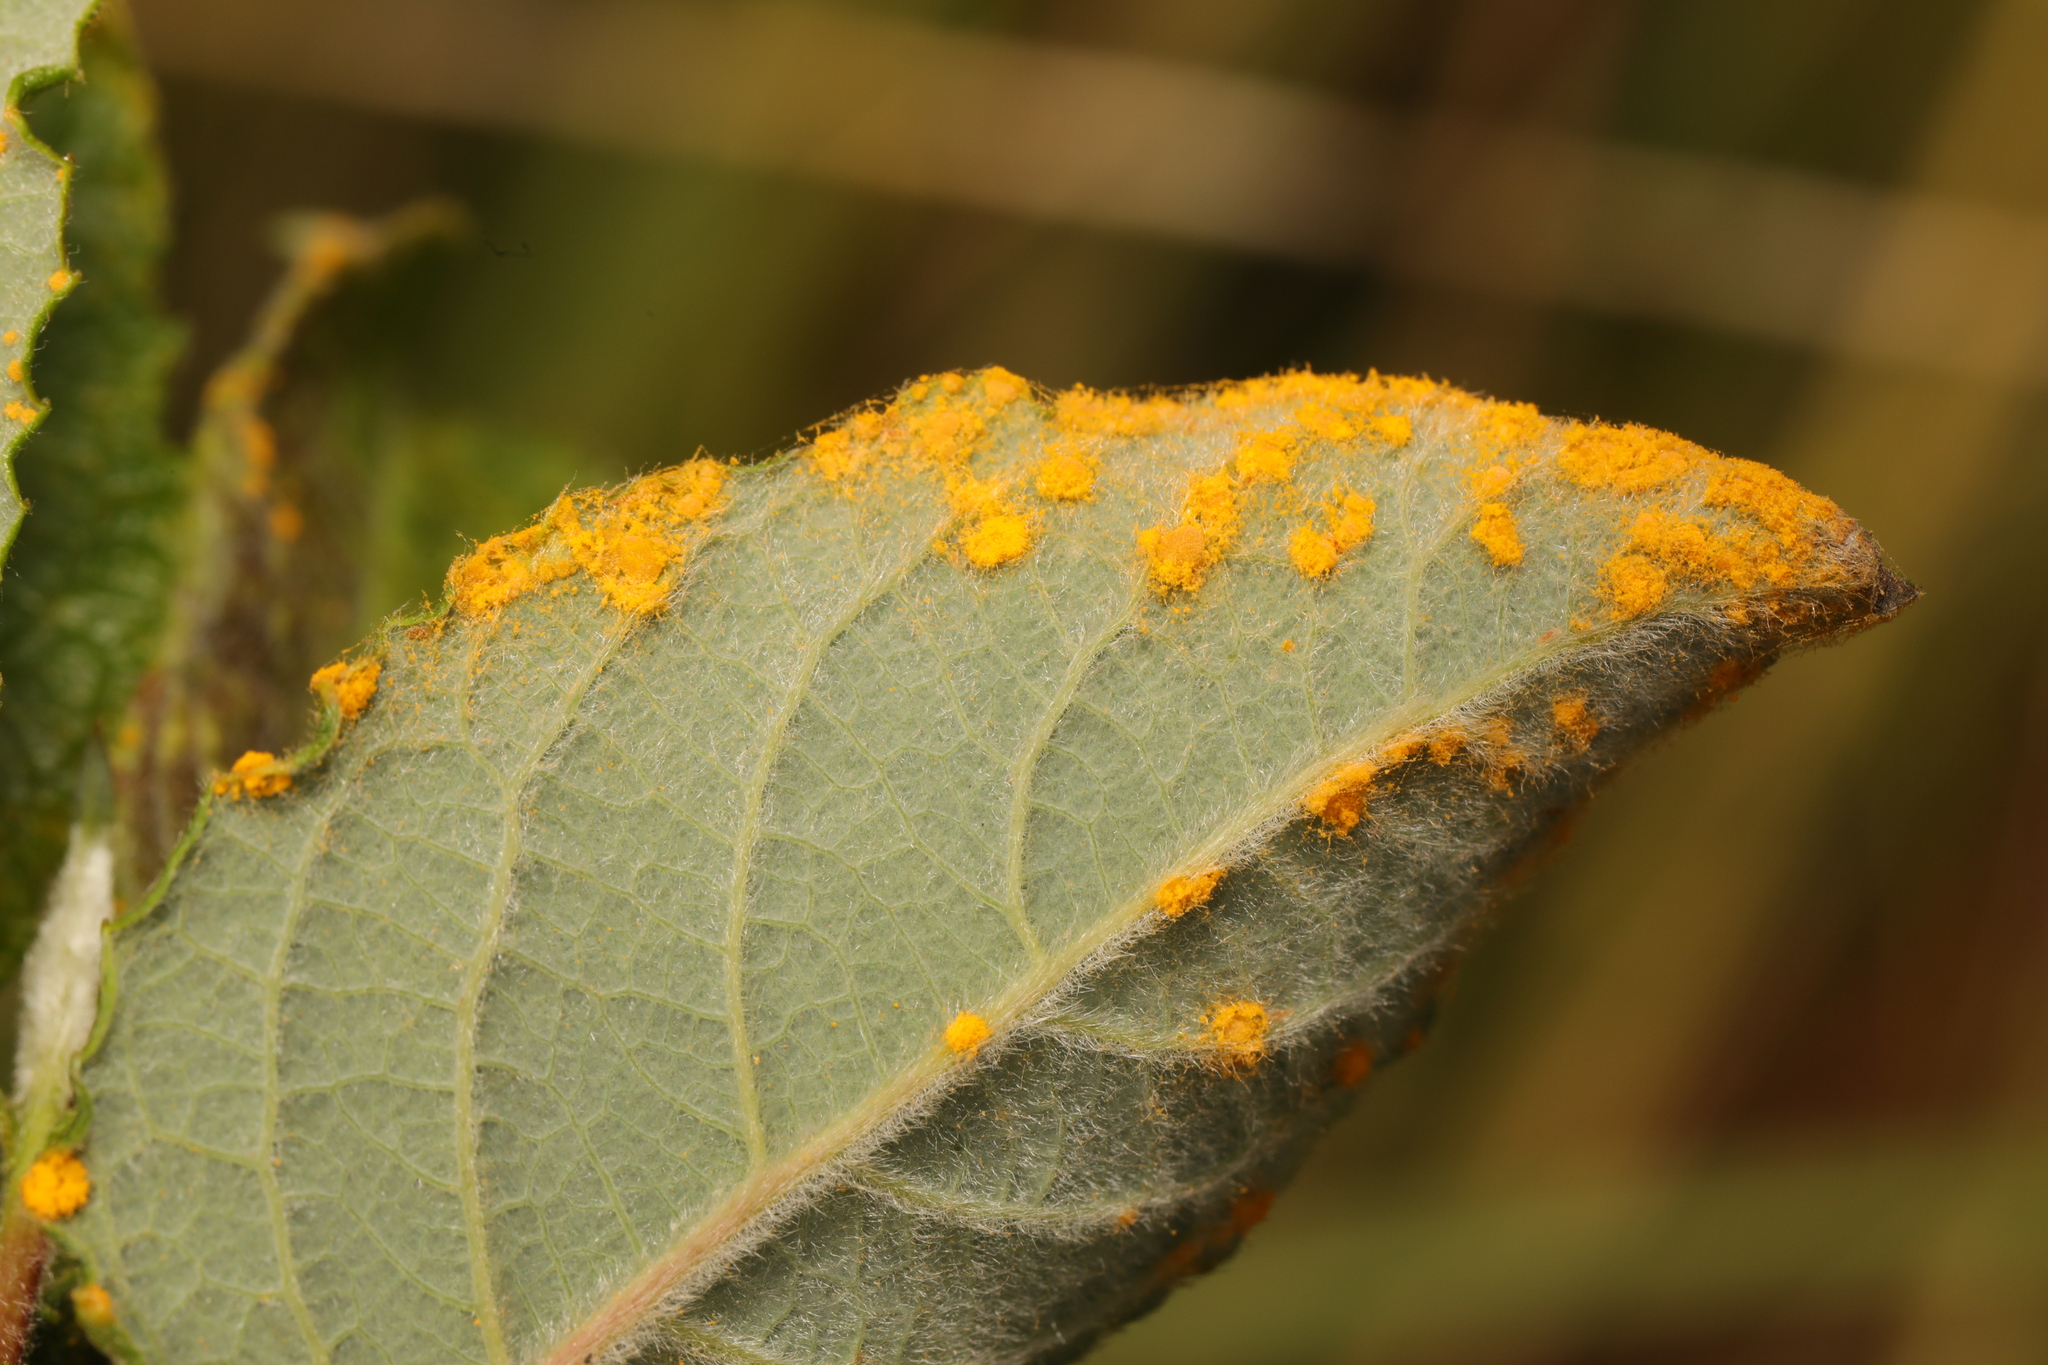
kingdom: Fungi
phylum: Basidiomycota
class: Pucciniomycetes
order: Pucciniales
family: Melampsoraceae
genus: Melampsora
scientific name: Melampsora
